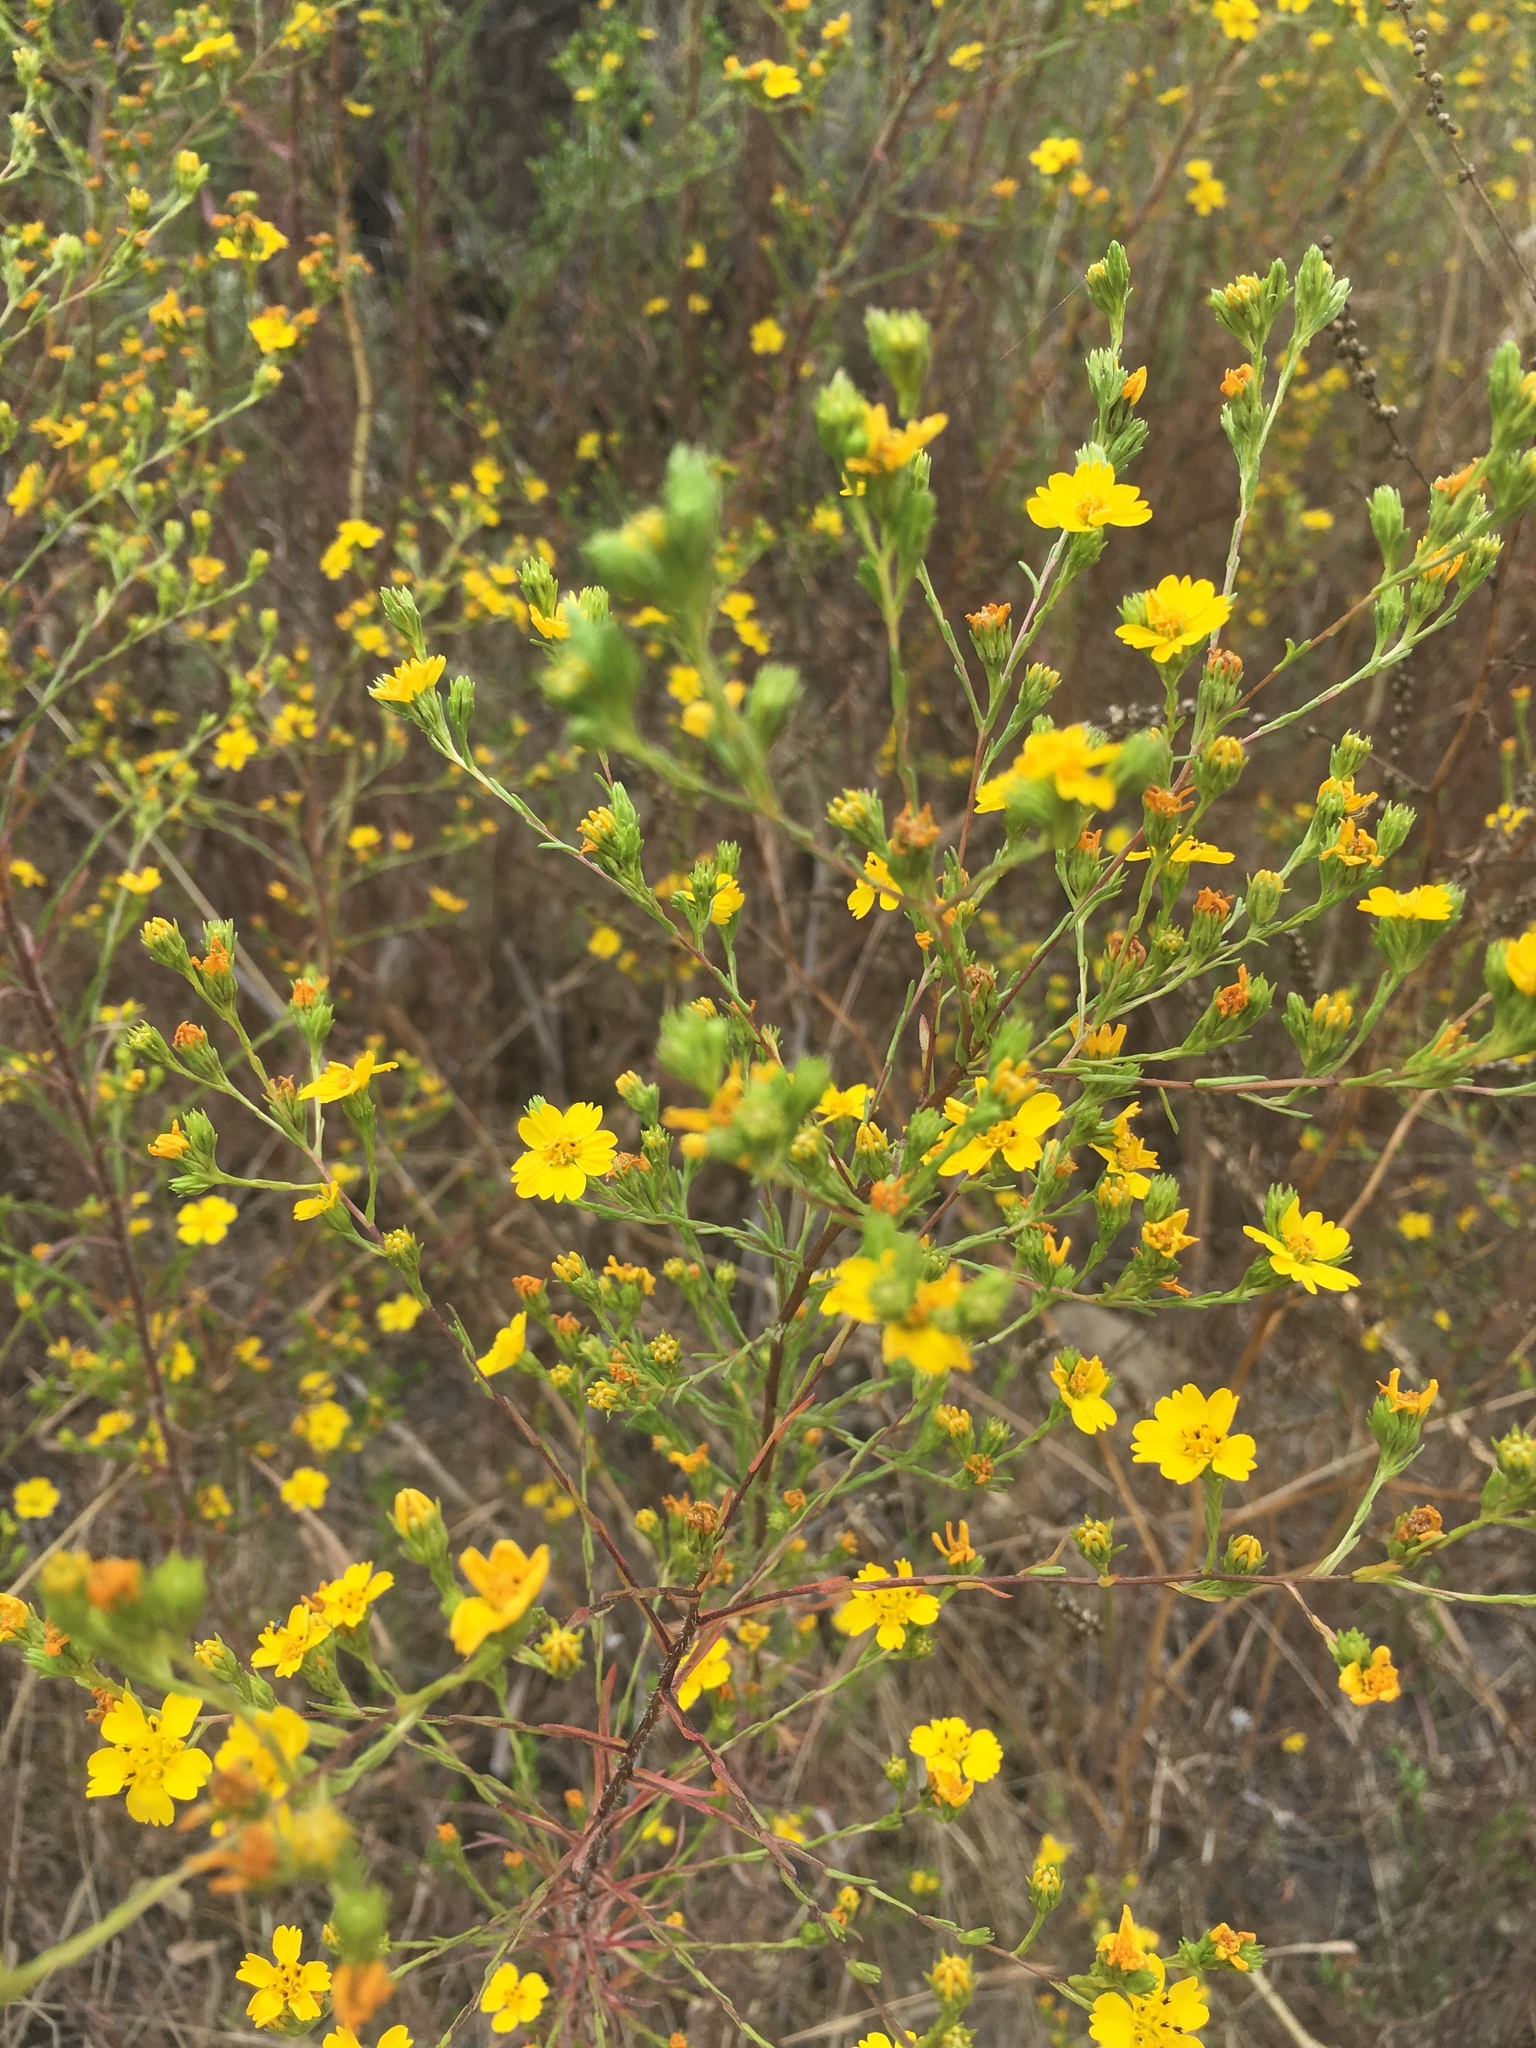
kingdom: Plantae
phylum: Tracheophyta
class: Magnoliopsida
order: Asterales
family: Asteraceae
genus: Deinandra
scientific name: Deinandra fasciculata
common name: Clustered tarweed
